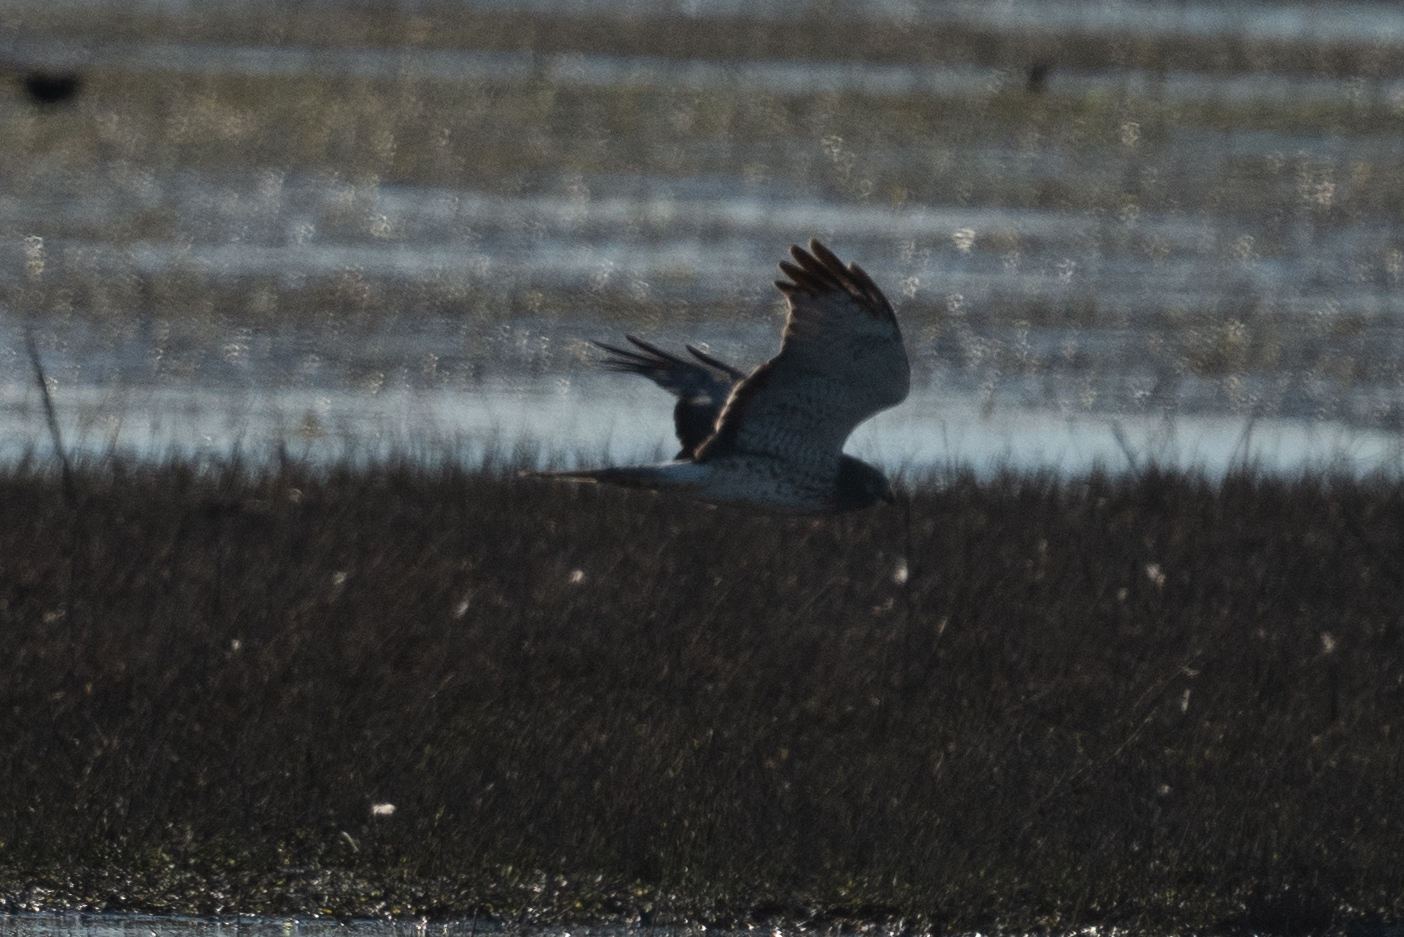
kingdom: Animalia
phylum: Chordata
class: Aves
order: Accipitriformes
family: Accipitridae
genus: Circus
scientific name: Circus cyaneus
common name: Hen harrier
